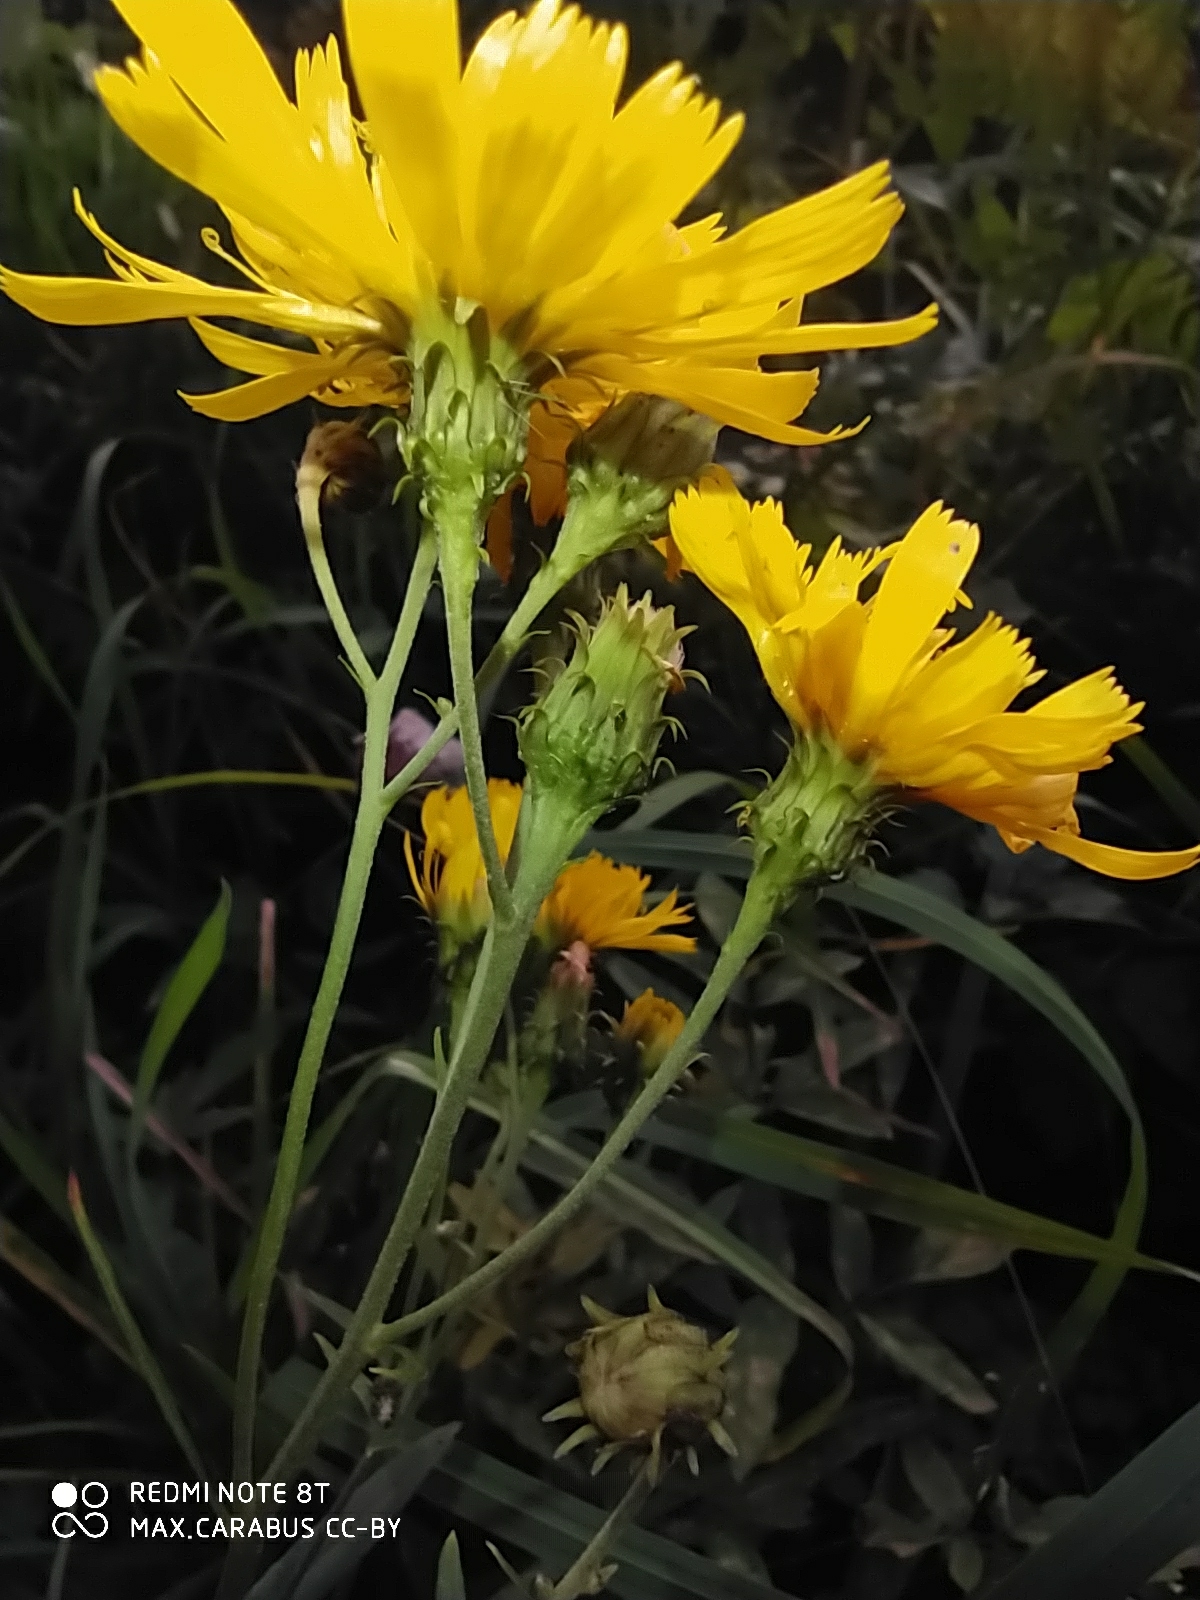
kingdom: Plantae
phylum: Tracheophyta
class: Magnoliopsida
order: Asterales
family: Asteraceae
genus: Hieracium
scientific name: Hieracium umbellatum
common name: Northern hawkweed
